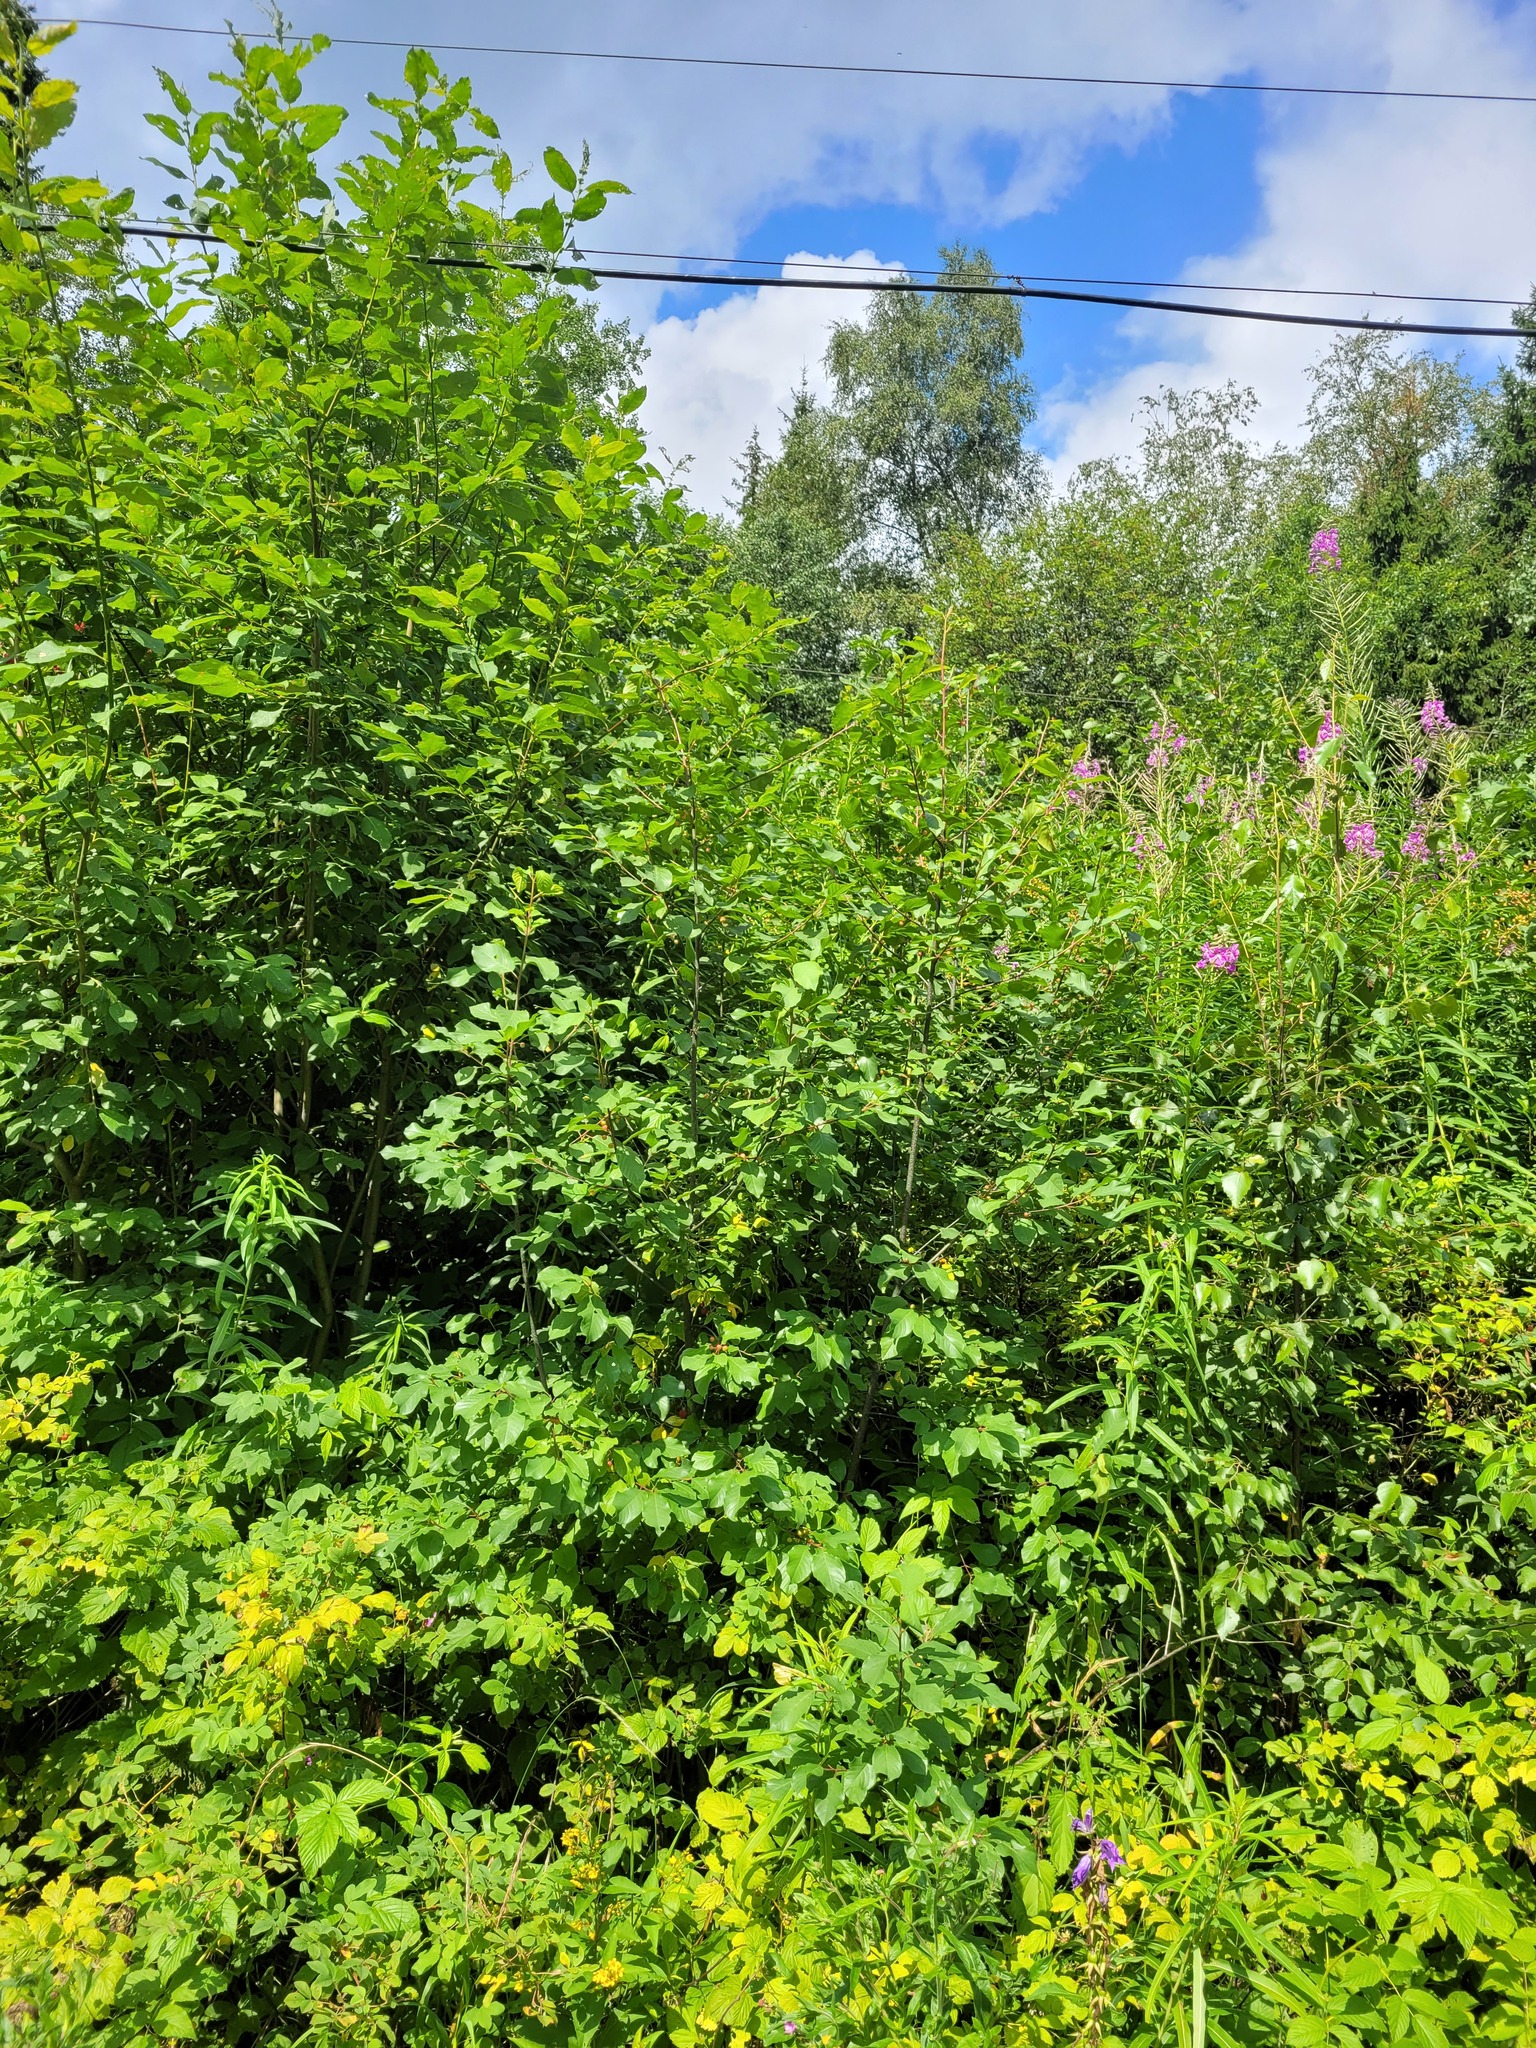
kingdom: Plantae
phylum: Tracheophyta
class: Magnoliopsida
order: Rosales
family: Rhamnaceae
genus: Frangula
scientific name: Frangula alnus
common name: Alder buckthorn
